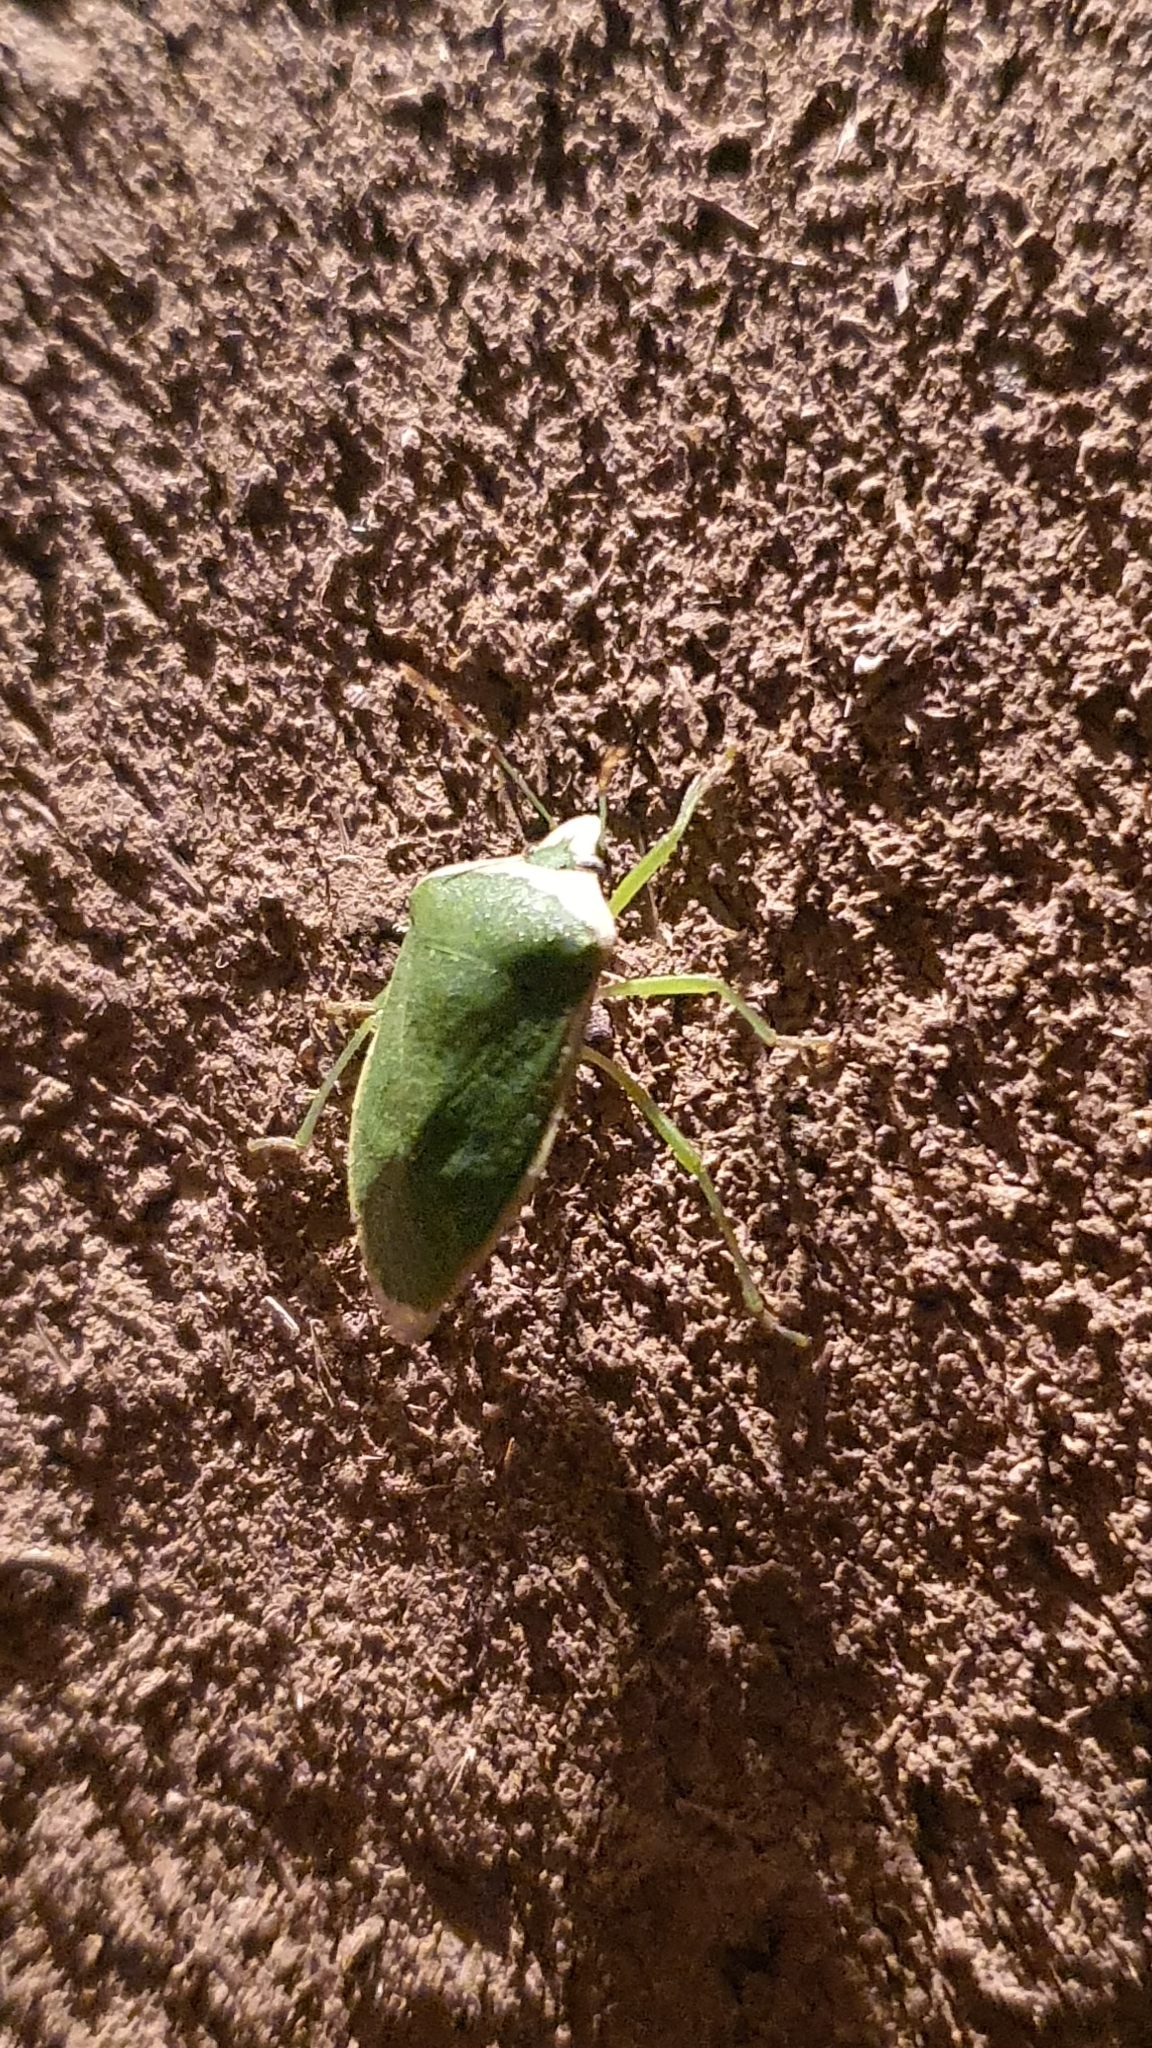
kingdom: Animalia
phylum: Arthropoda
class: Insecta
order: Hemiptera
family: Pentatomidae
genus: Nezara
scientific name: Nezara viridula
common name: Southern green stink bug
